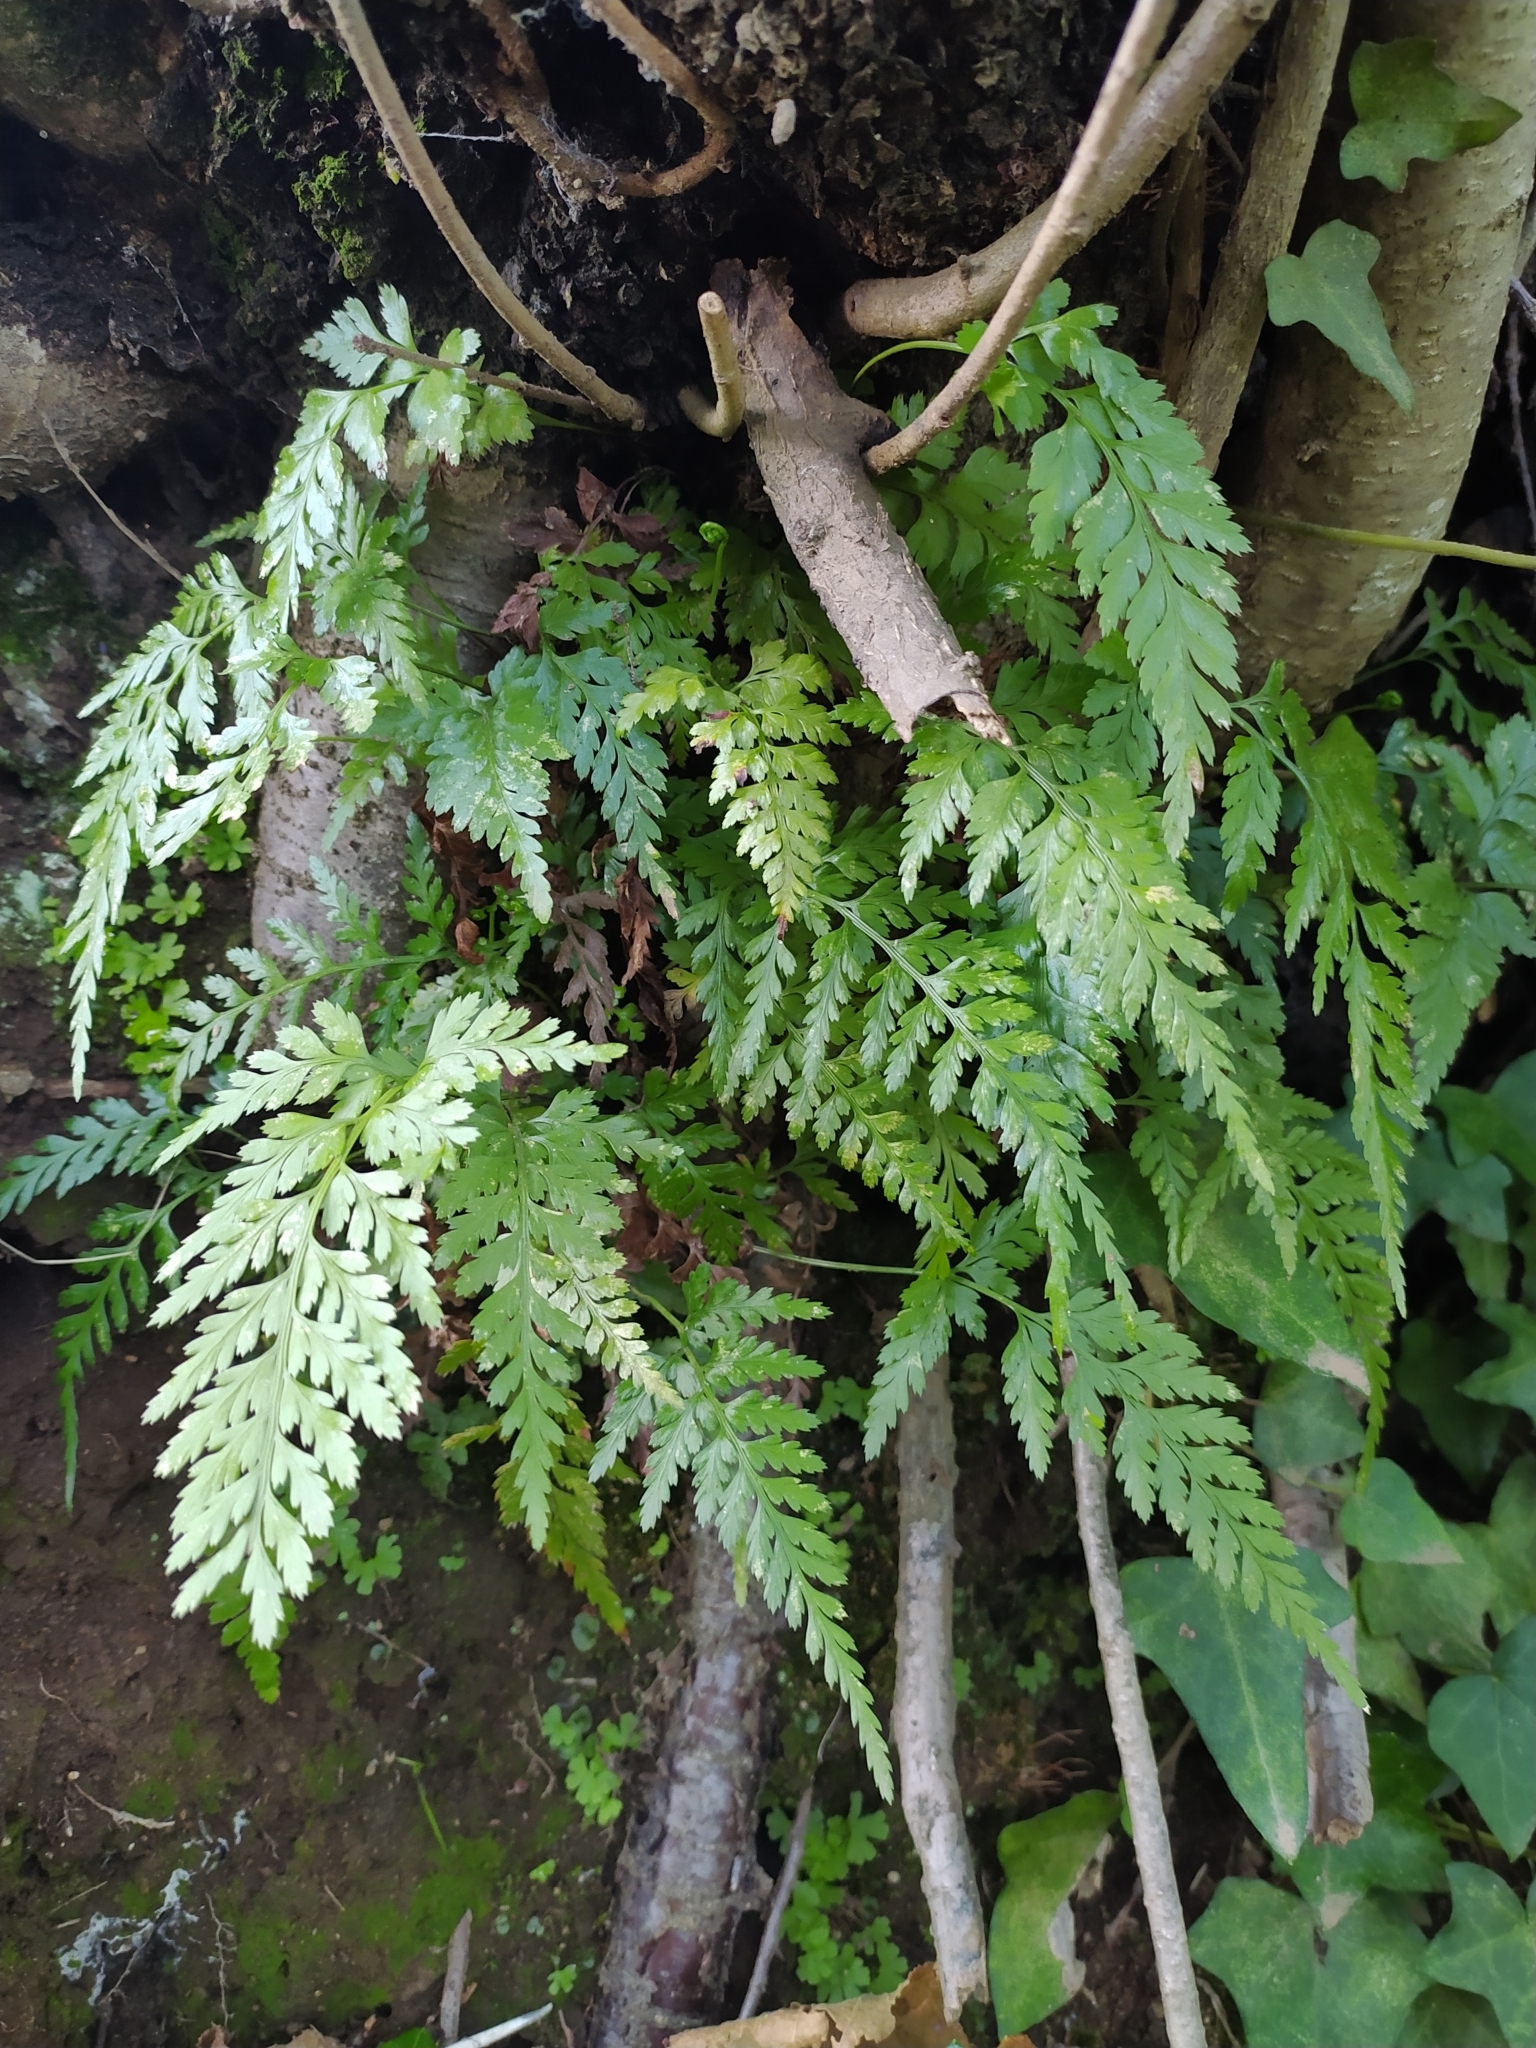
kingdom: Plantae
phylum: Tracheophyta
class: Polypodiopsida
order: Polypodiales
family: Aspleniaceae
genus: Asplenium
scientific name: Asplenium adiantum-nigrum
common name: Black spleenwort
